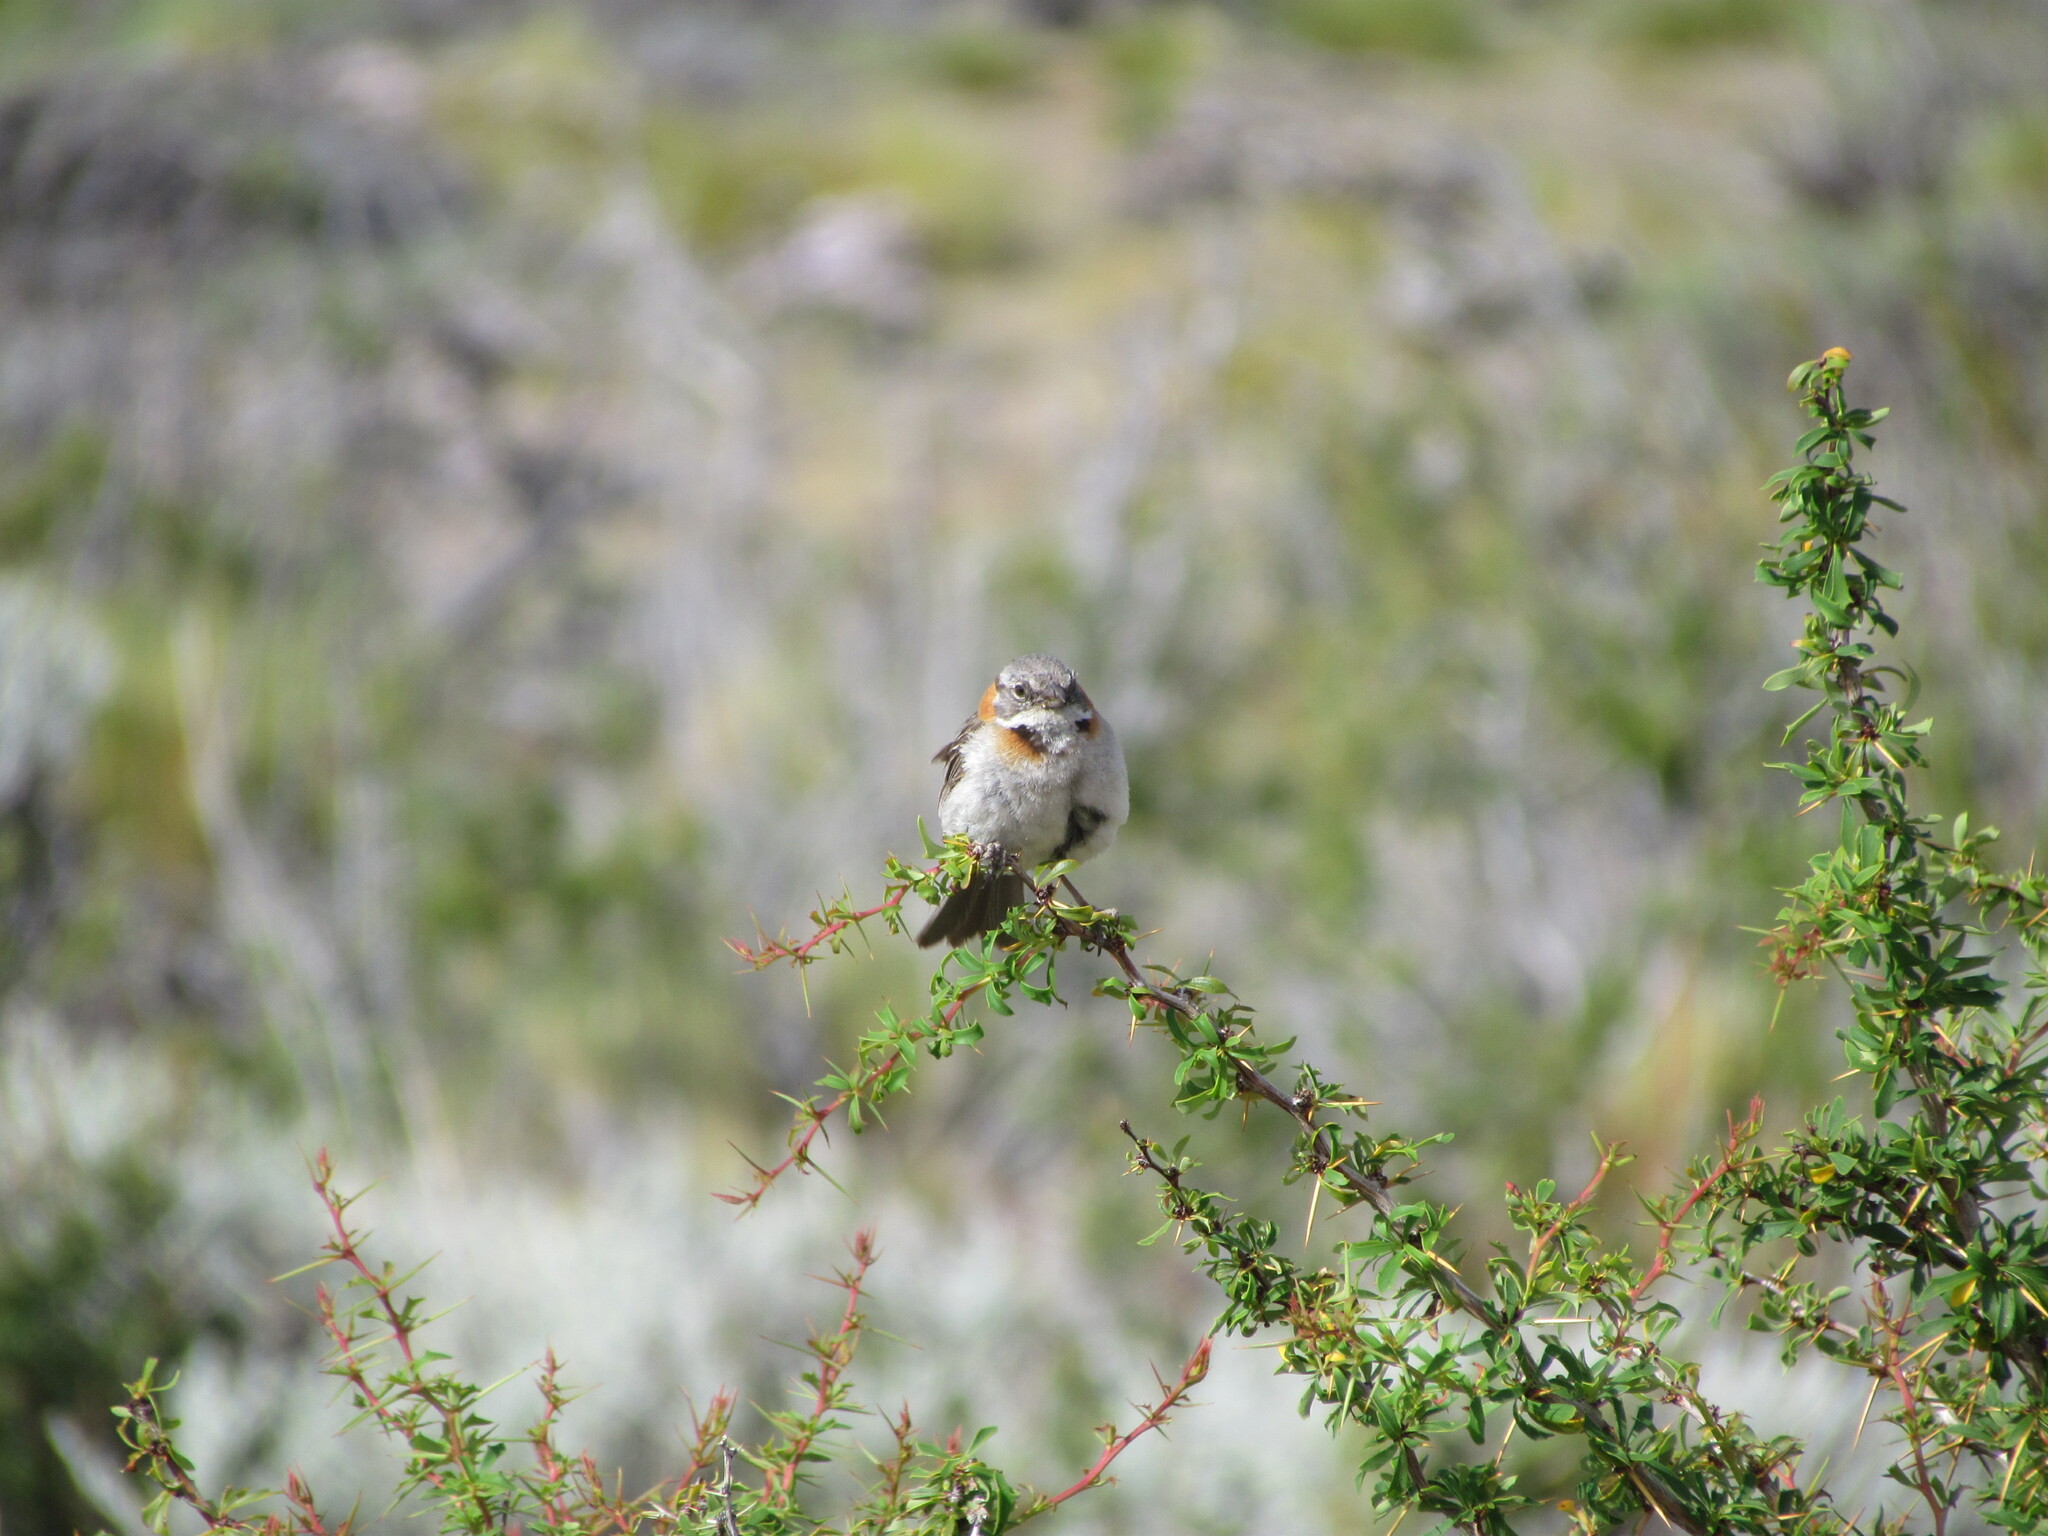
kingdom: Animalia
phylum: Chordata
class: Aves
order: Passeriformes
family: Passerellidae
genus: Zonotrichia
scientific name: Zonotrichia capensis
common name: Rufous-collared sparrow
